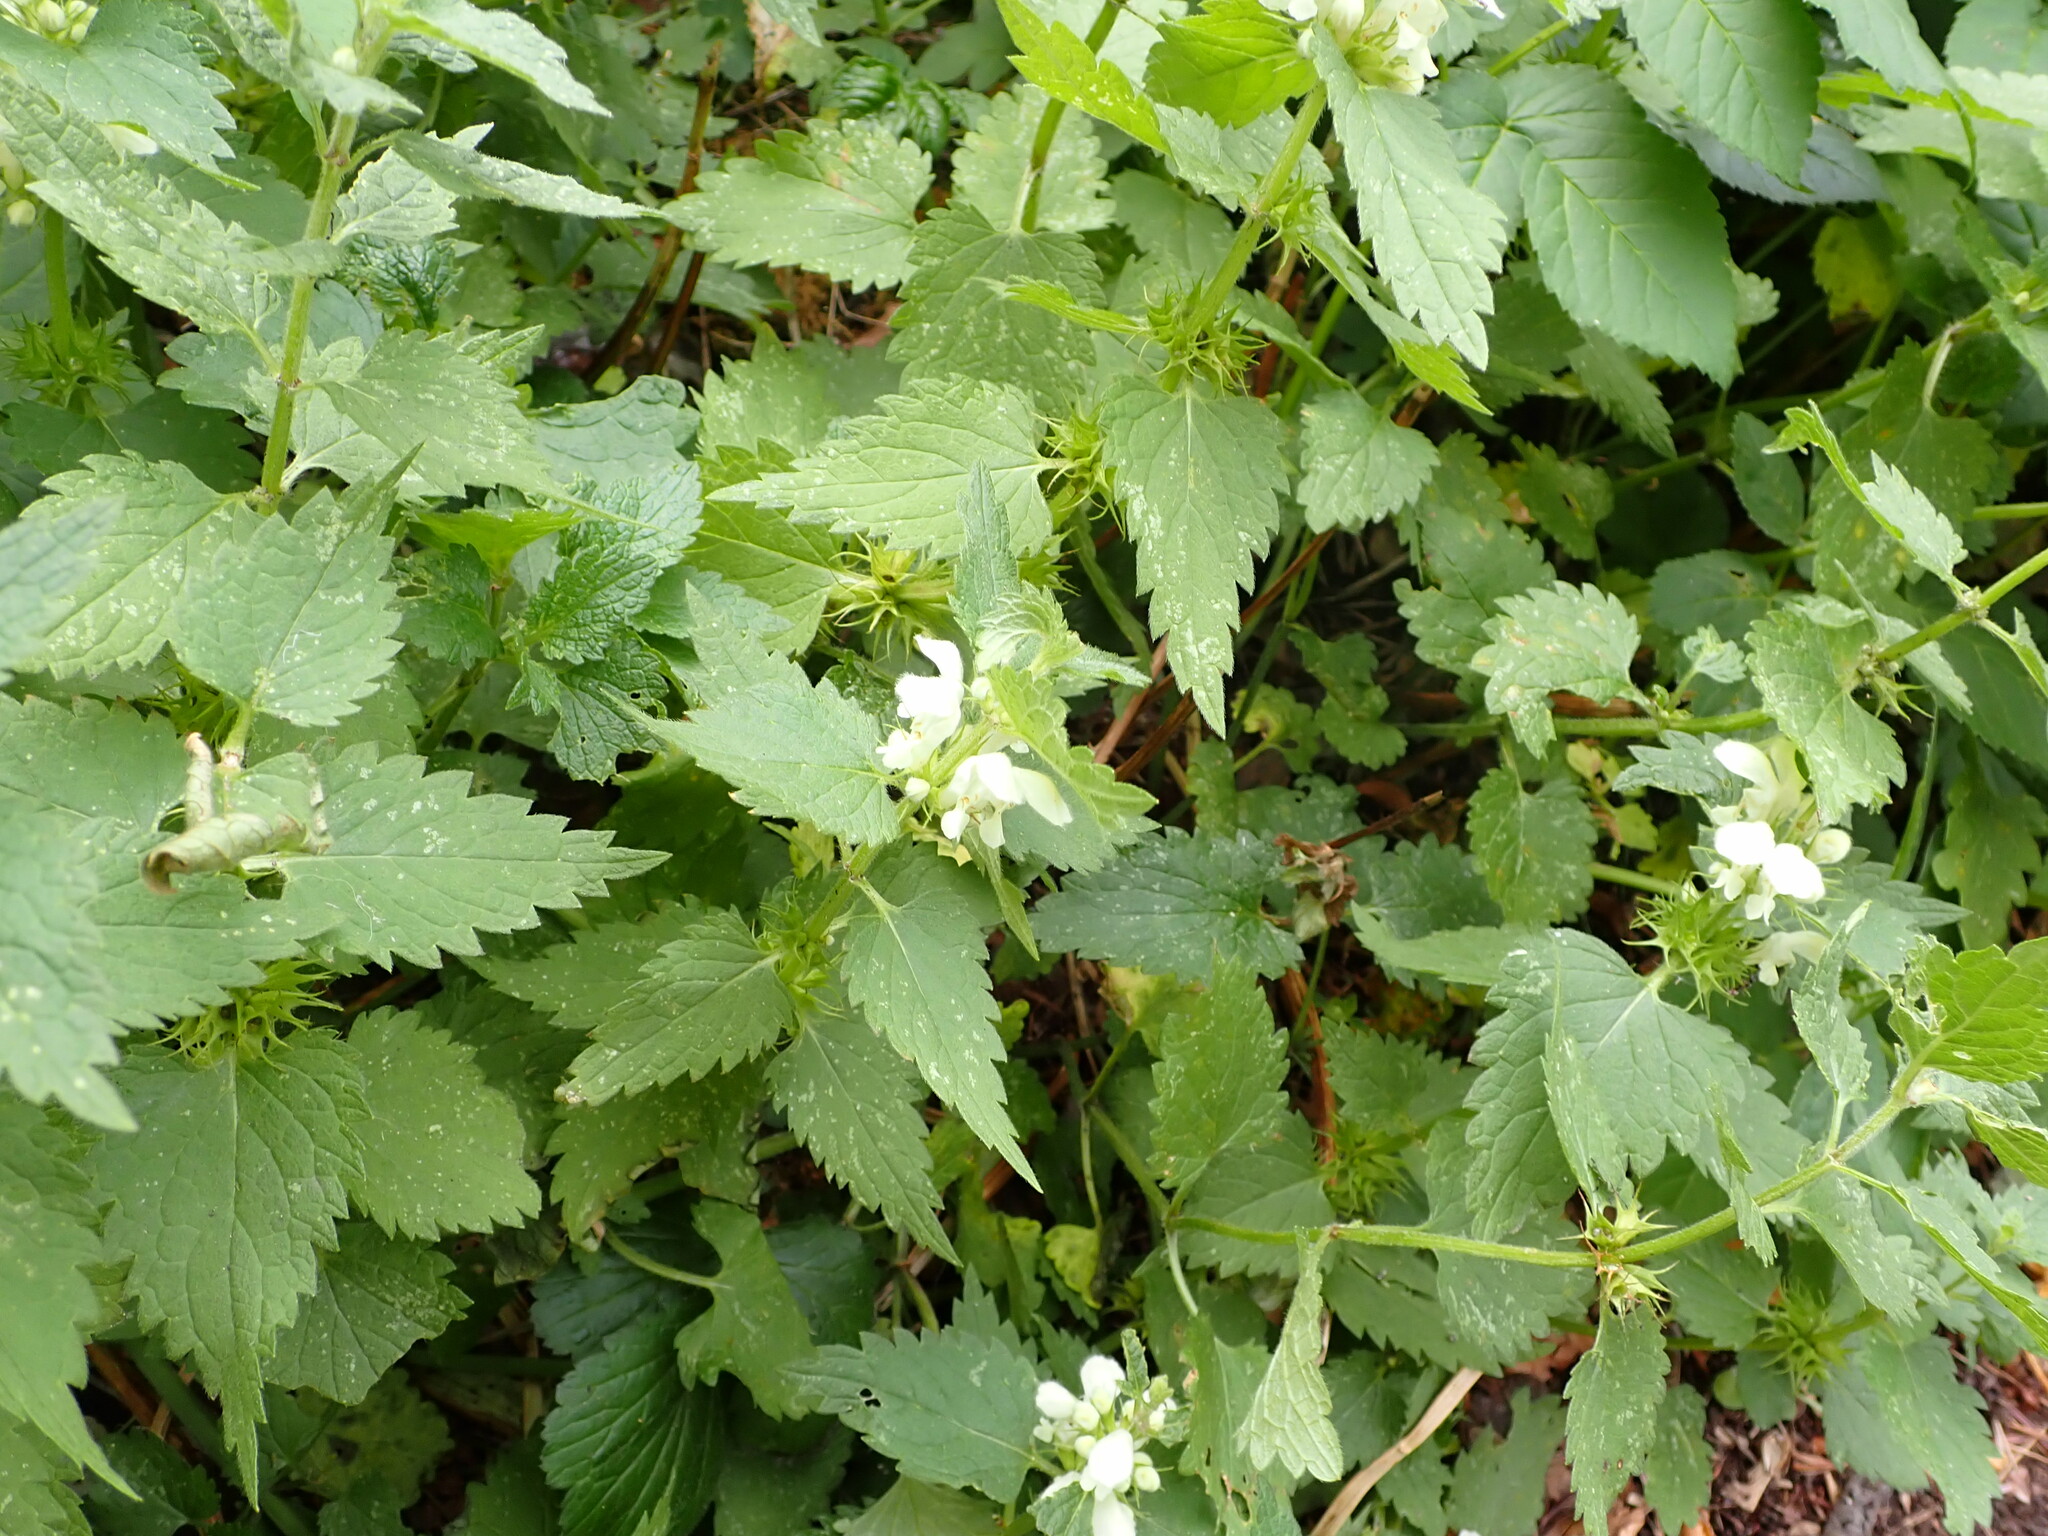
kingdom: Plantae
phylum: Tracheophyta
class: Magnoliopsida
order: Lamiales
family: Lamiaceae
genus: Lamium
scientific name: Lamium album
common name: White dead-nettle
